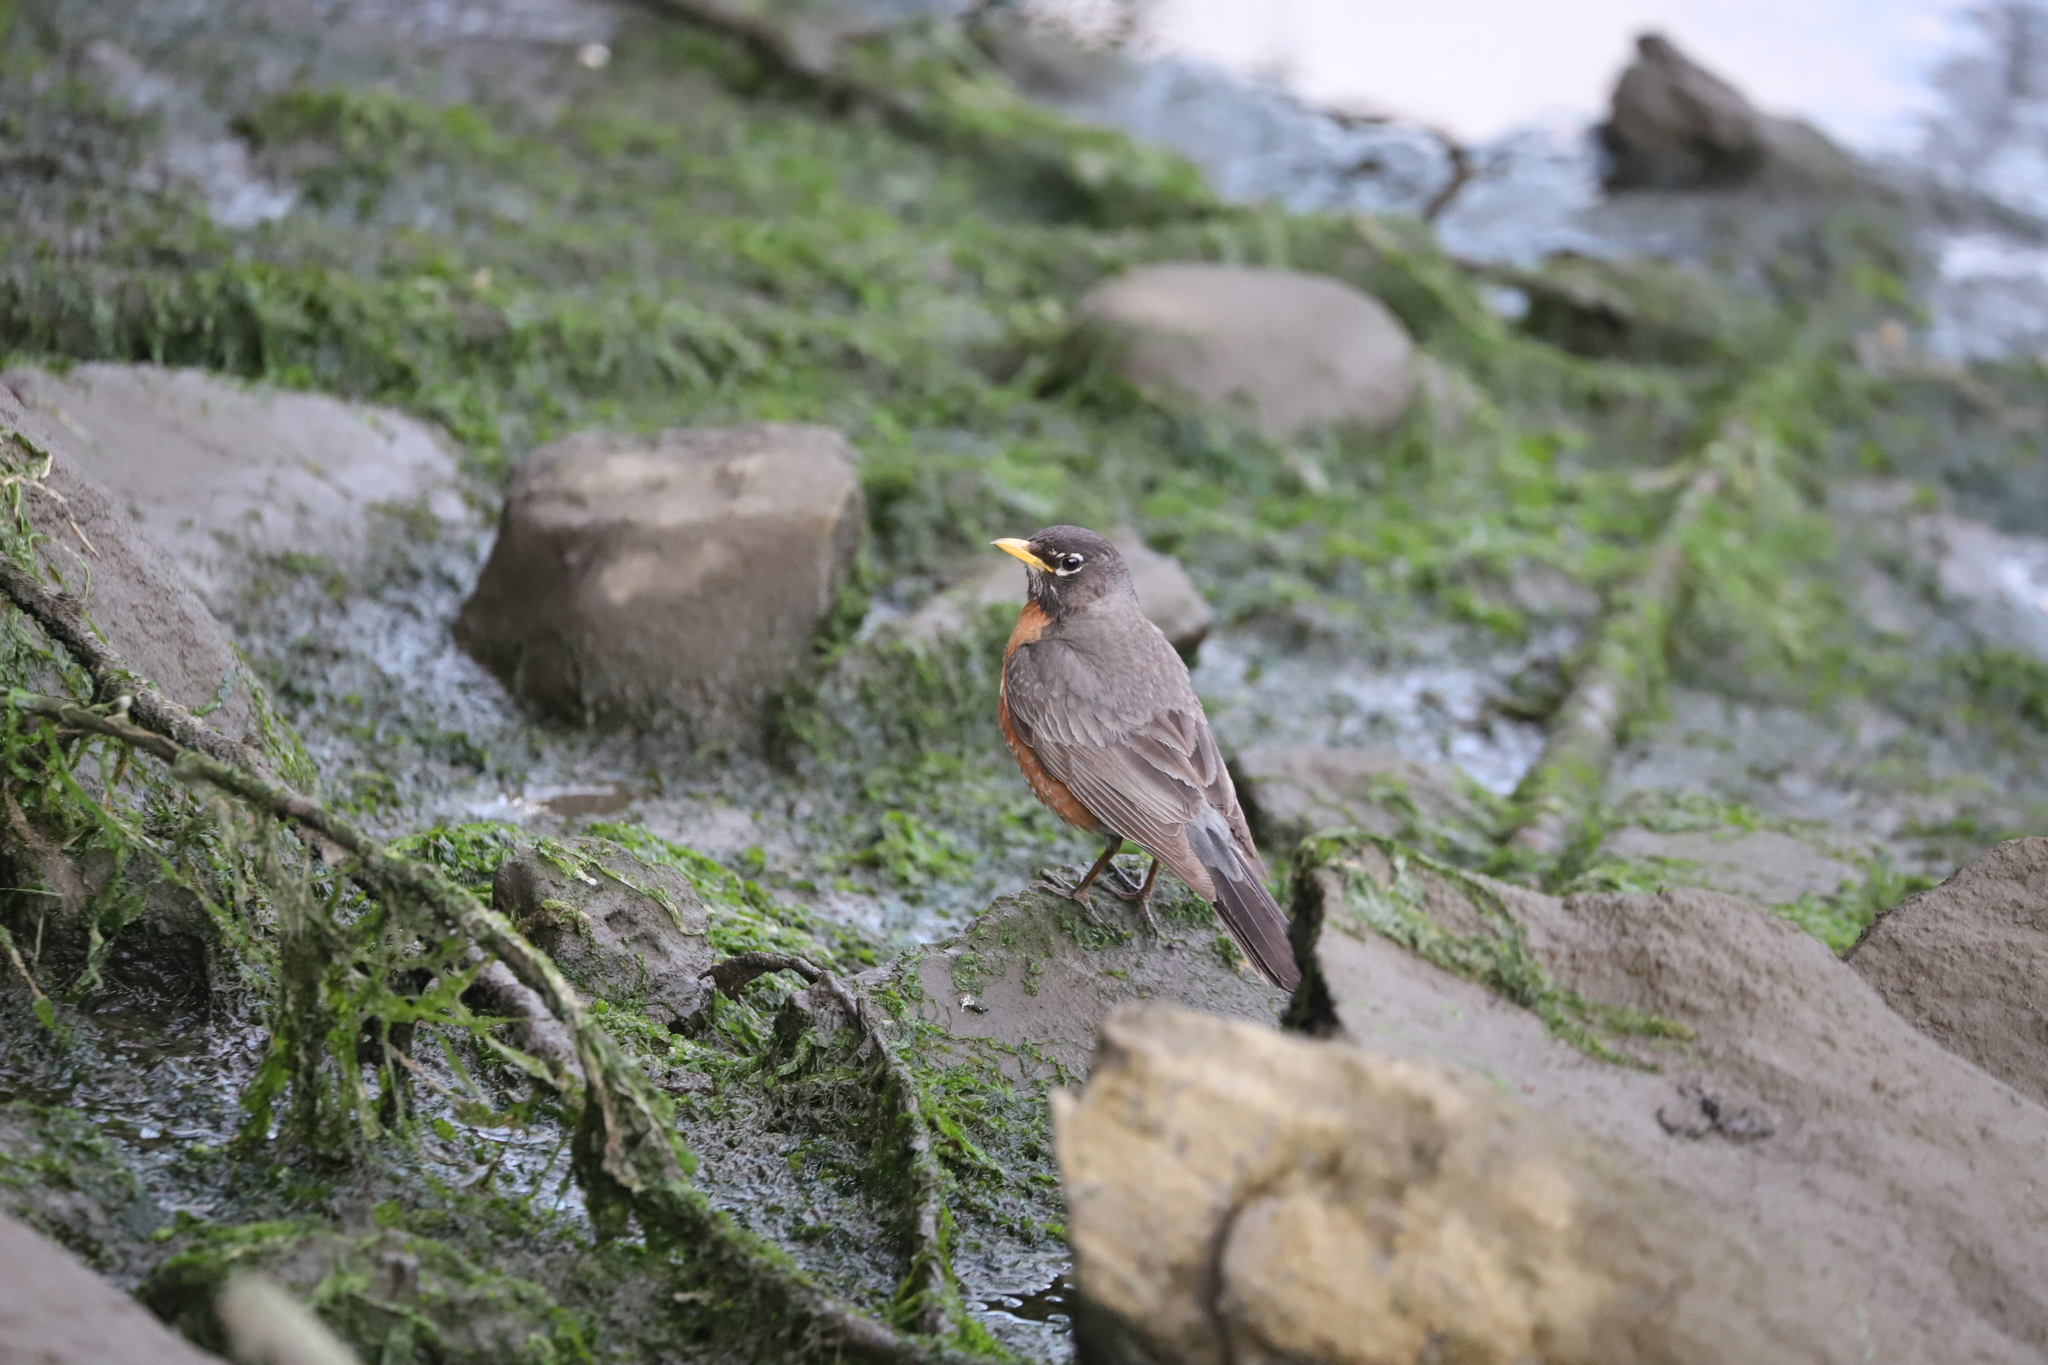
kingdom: Animalia
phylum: Chordata
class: Aves
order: Passeriformes
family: Turdidae
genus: Turdus
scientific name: Turdus migratorius
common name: American robin
